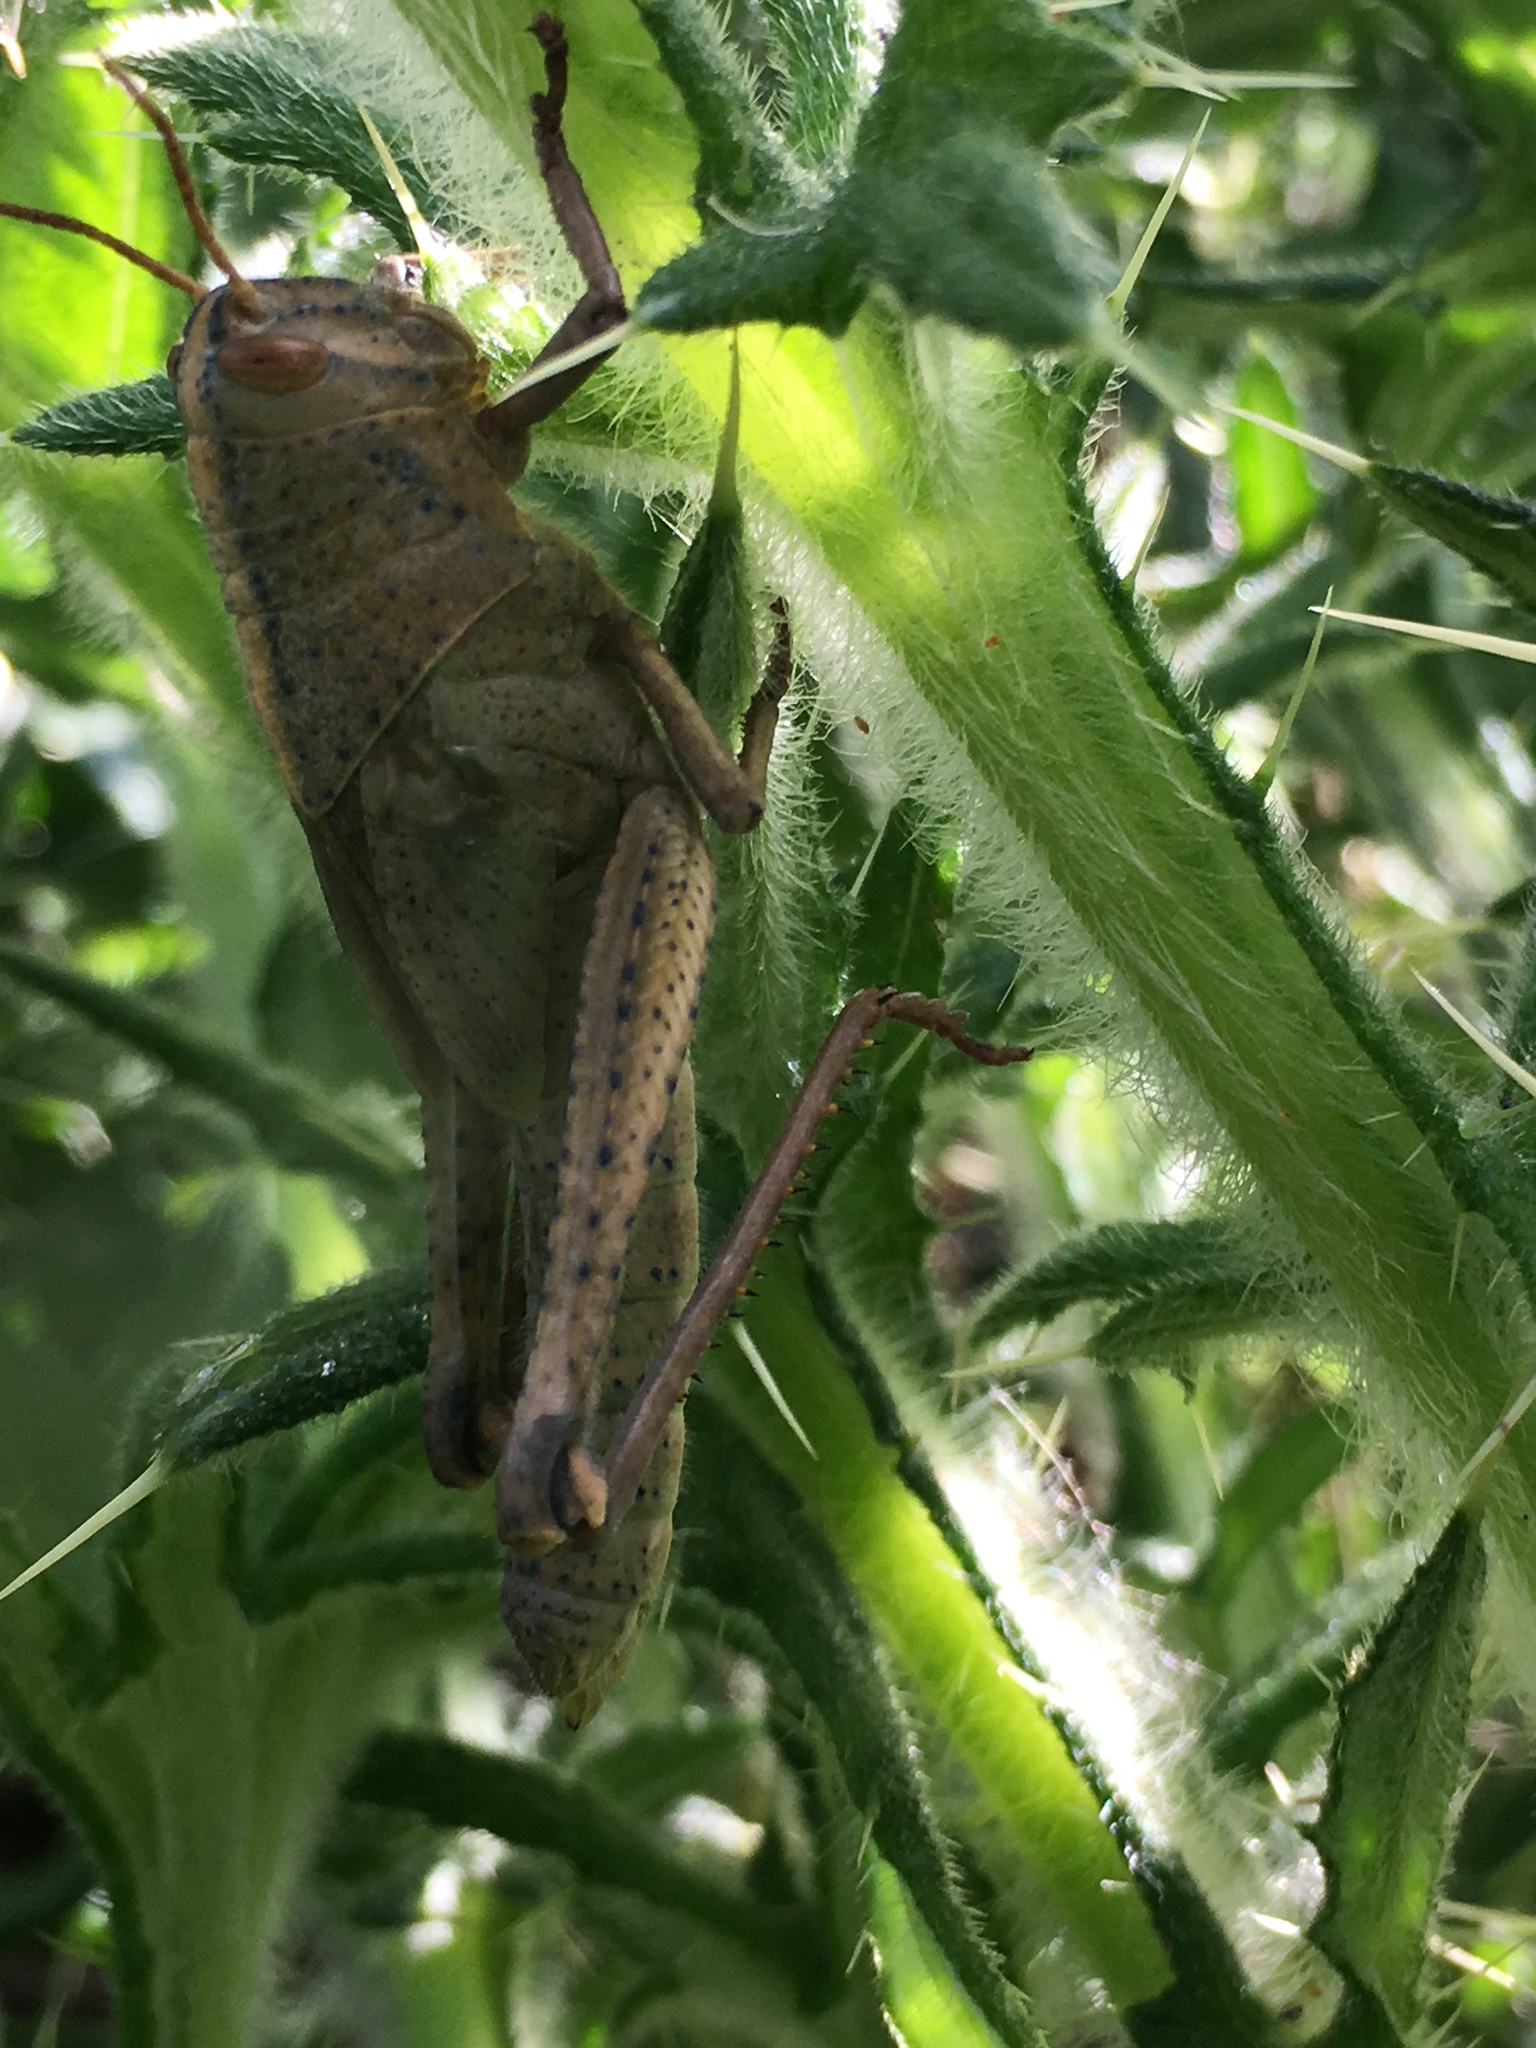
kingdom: Animalia
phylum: Arthropoda
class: Insecta
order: Orthoptera
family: Acrididae
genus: Schistocerca
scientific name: Schistocerca flavofasciata
